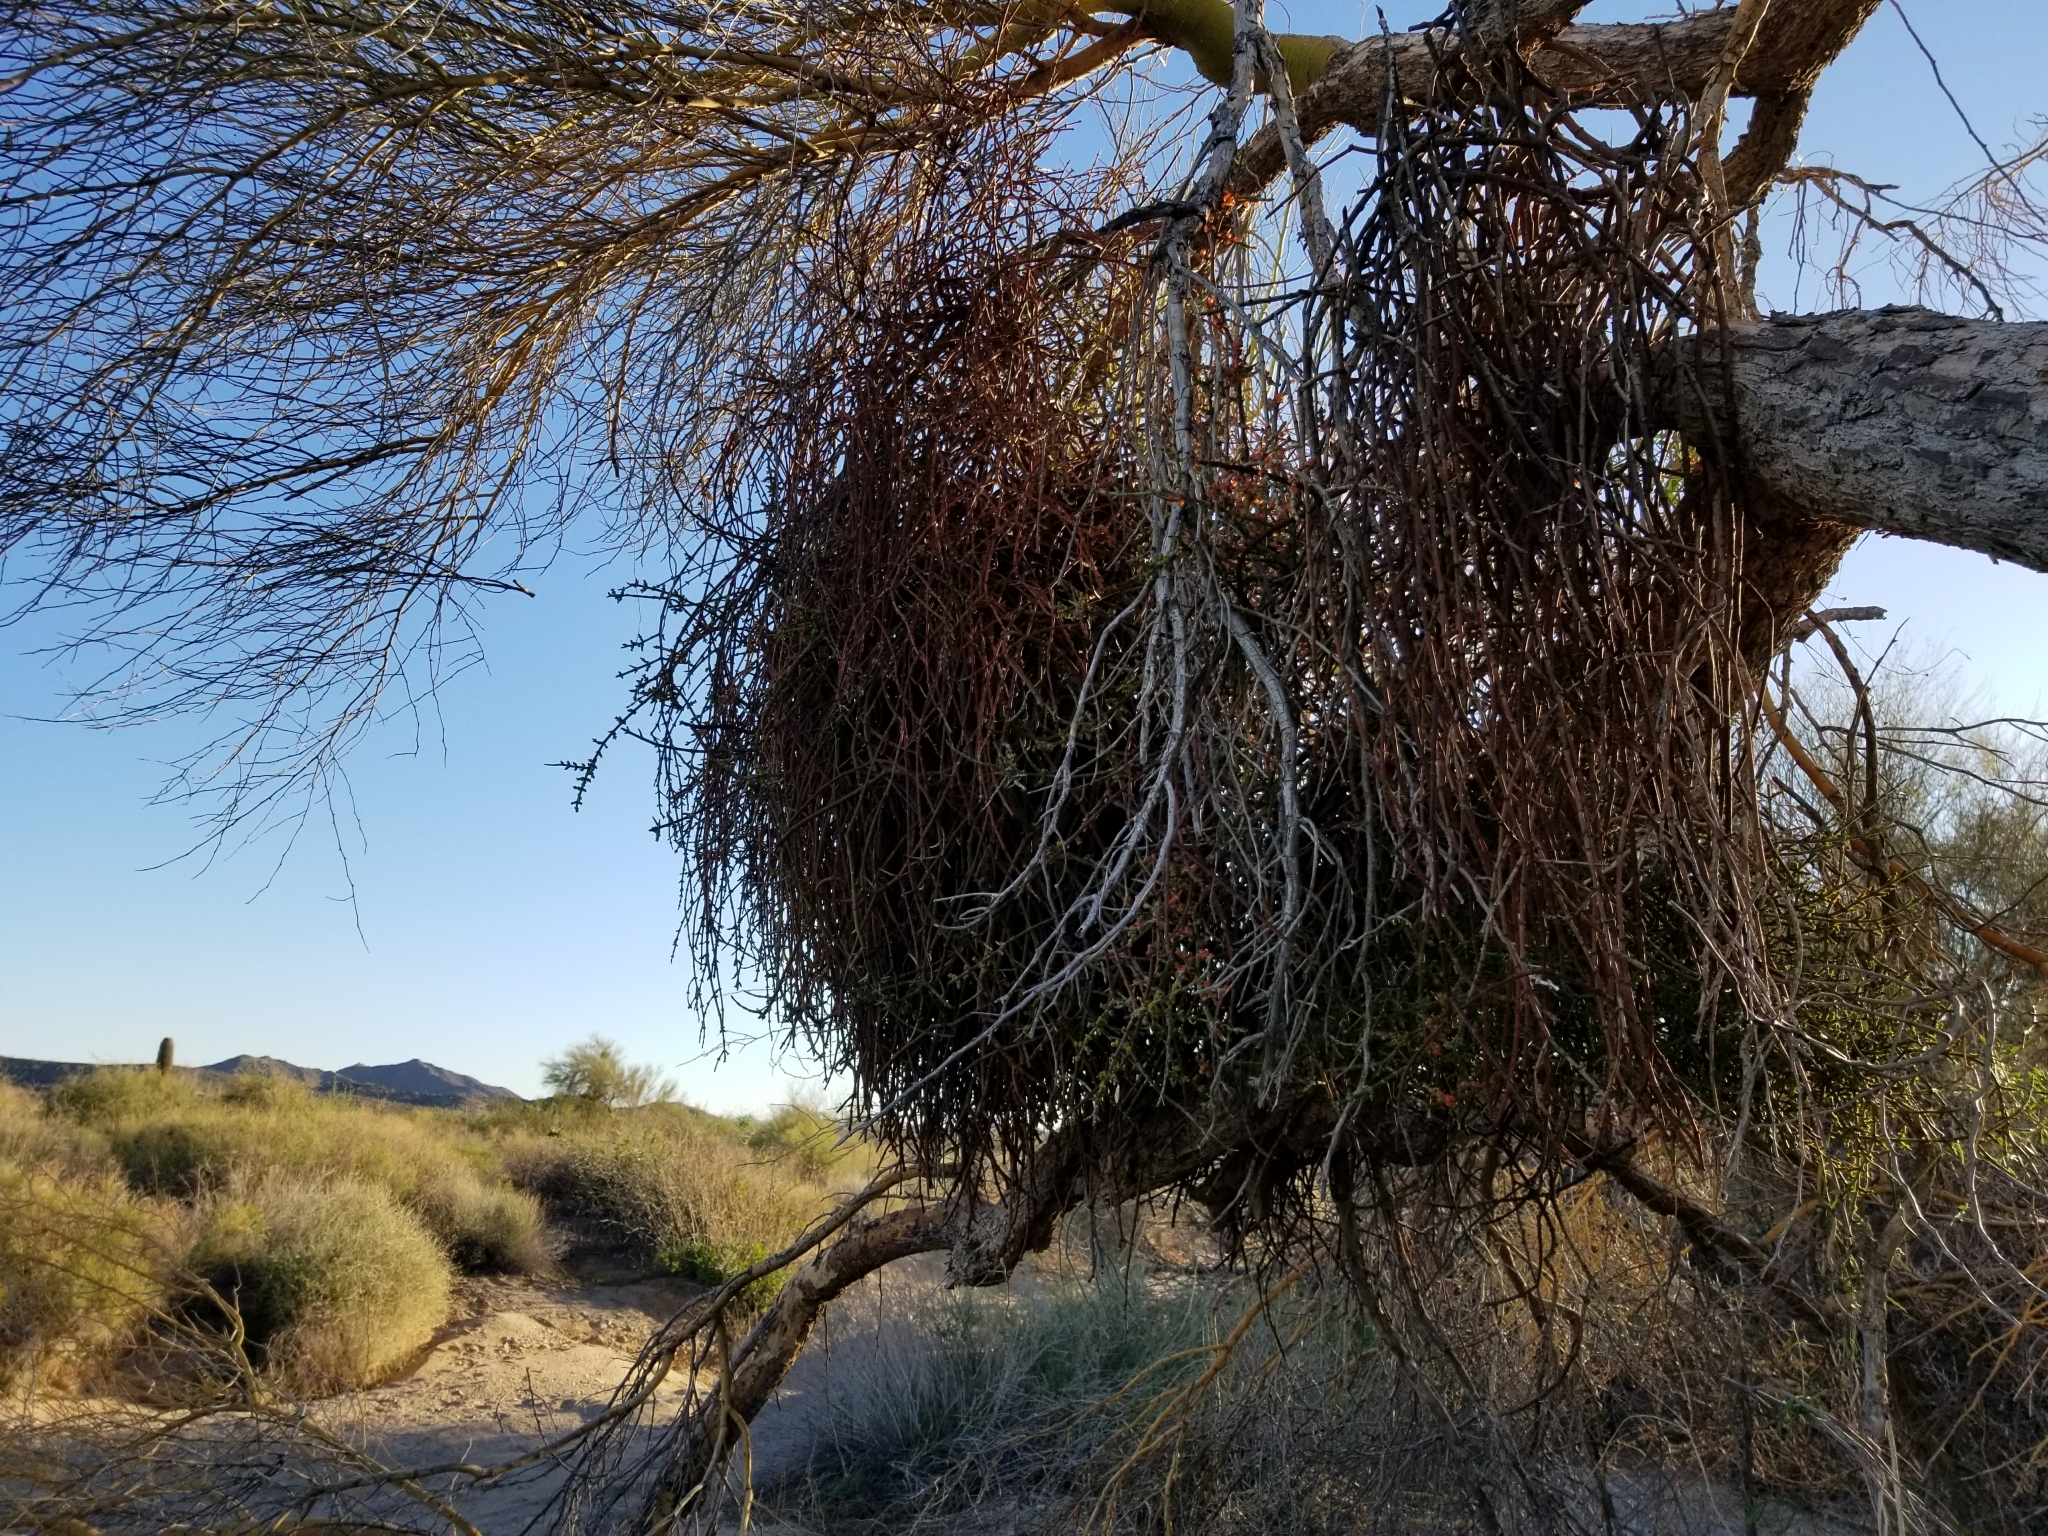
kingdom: Plantae
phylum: Tracheophyta
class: Magnoliopsida
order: Santalales
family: Viscaceae
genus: Phoradendron
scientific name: Phoradendron californicum
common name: Acacia mistletoe
